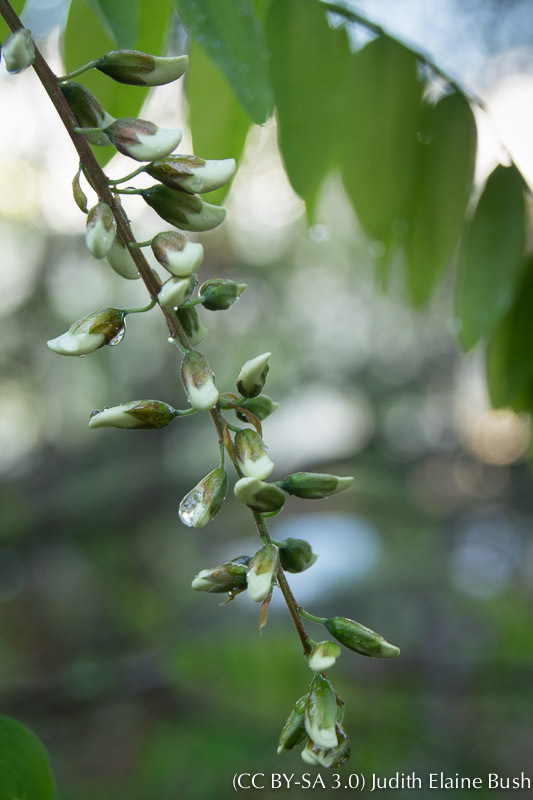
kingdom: Plantae
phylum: Tracheophyta
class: Magnoliopsida
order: Fabales
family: Fabaceae
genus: Robinia
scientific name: Robinia pseudoacacia
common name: Black locust
